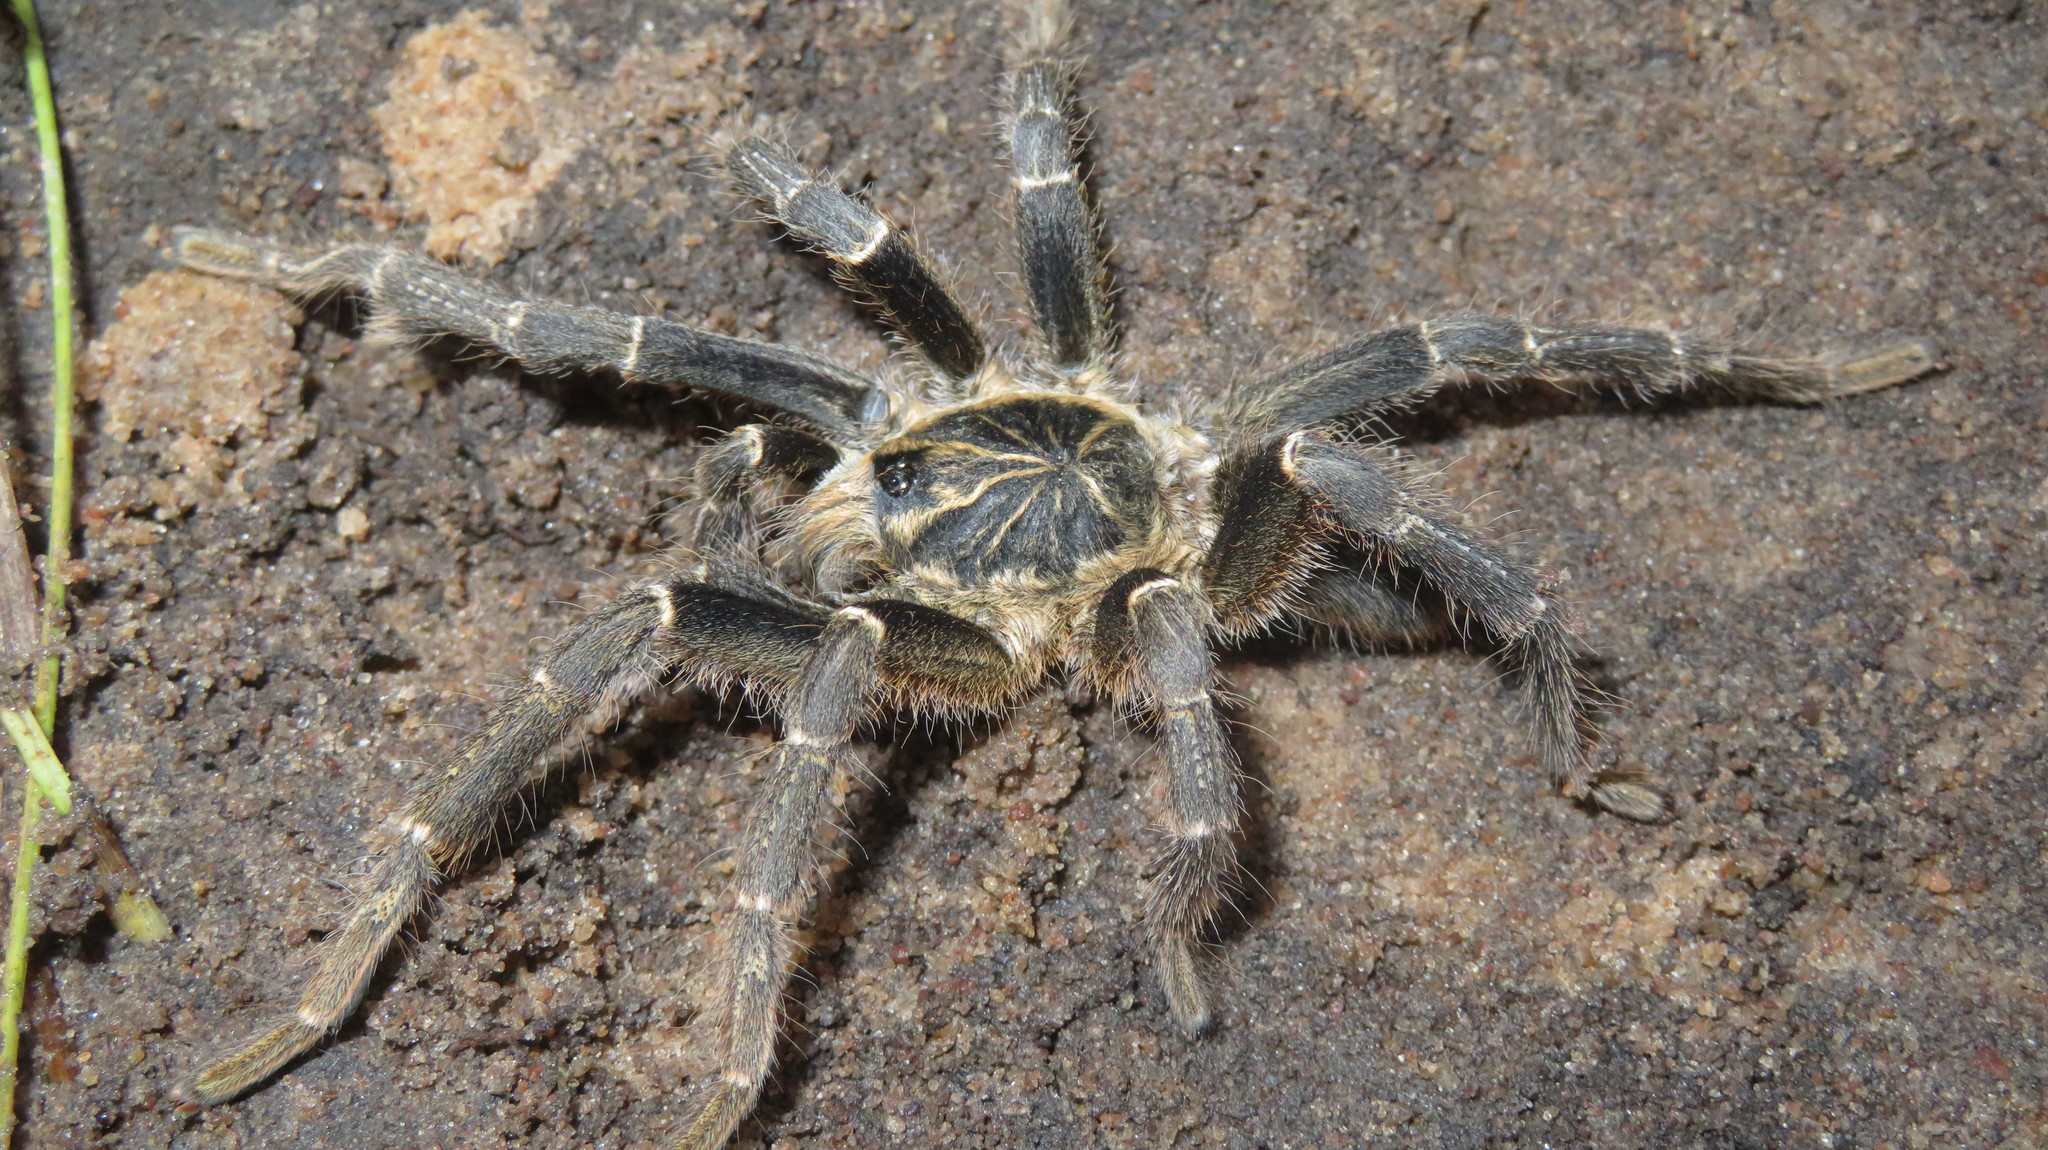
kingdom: Animalia
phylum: Arthropoda
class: Arachnida
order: Araneae
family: Theraphosidae
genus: Pterinochilus
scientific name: Pterinochilus vorax
